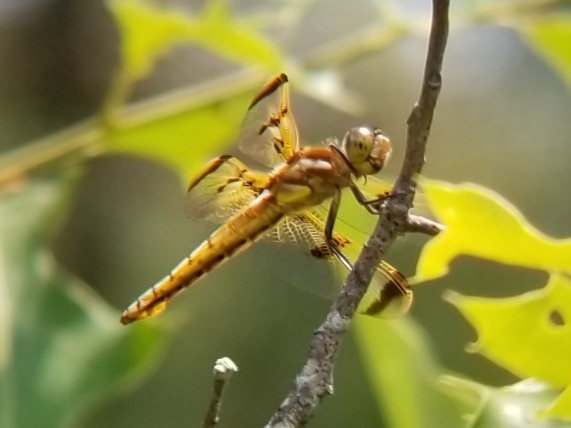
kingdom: Animalia
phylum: Arthropoda
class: Insecta
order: Odonata
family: Libellulidae
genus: Libellula
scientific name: Libellula semifasciata
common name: Painted skimmer
